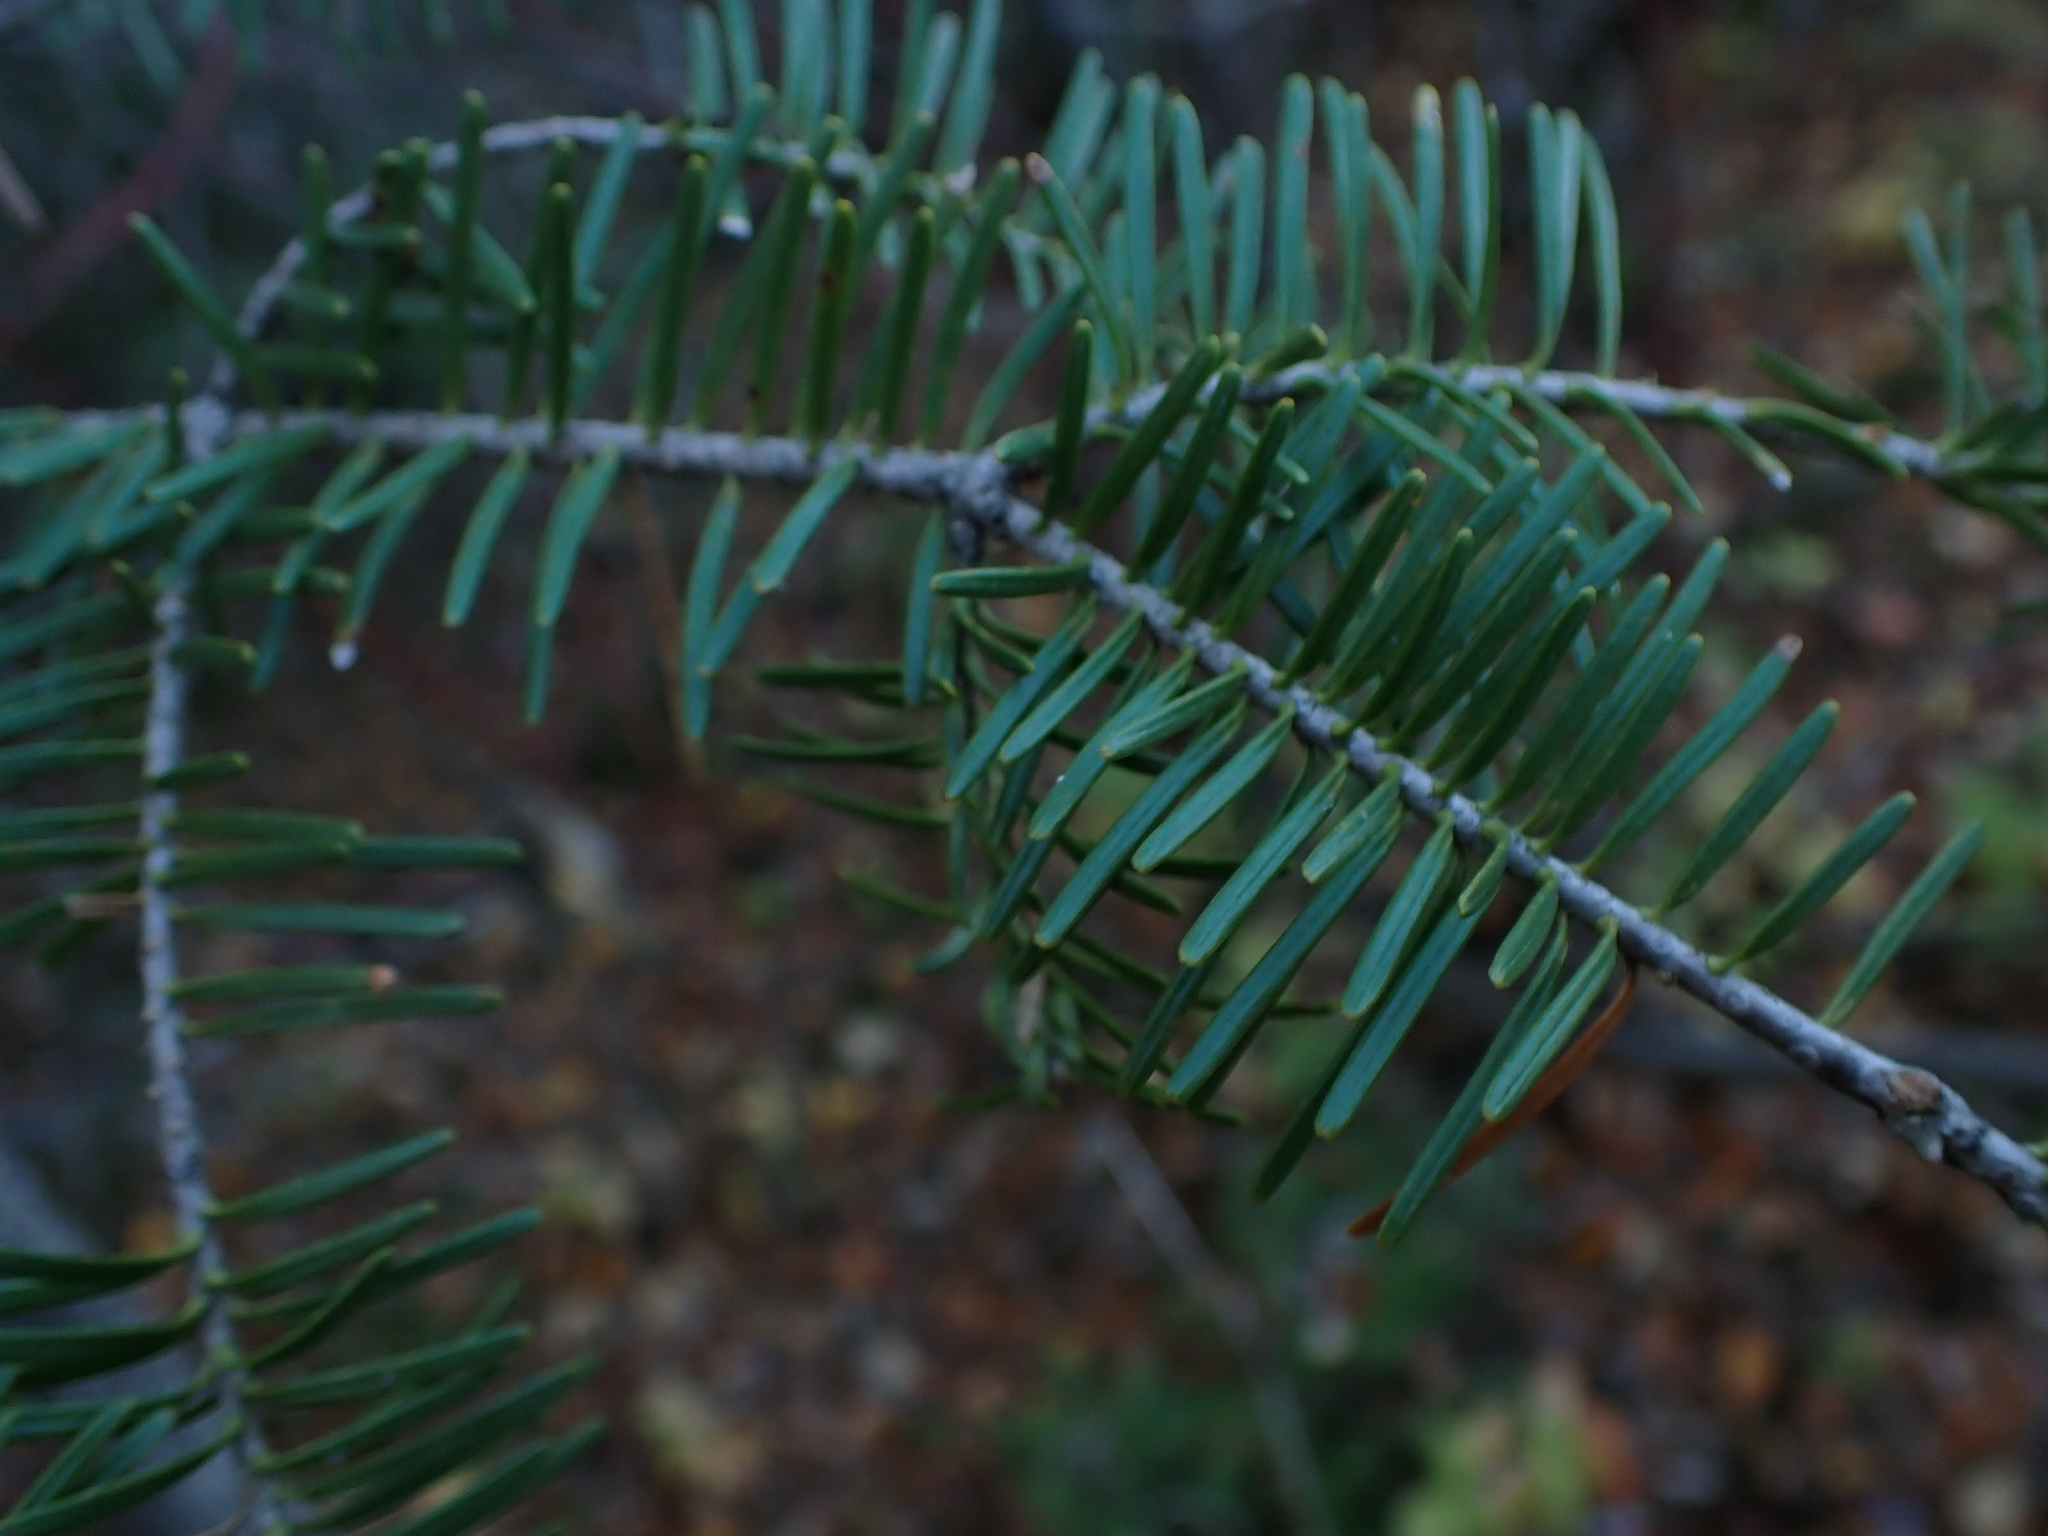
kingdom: Plantae
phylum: Tracheophyta
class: Pinopsida
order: Pinales
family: Pinaceae
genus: Abies
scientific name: Abies balsamea
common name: Balsam fir
